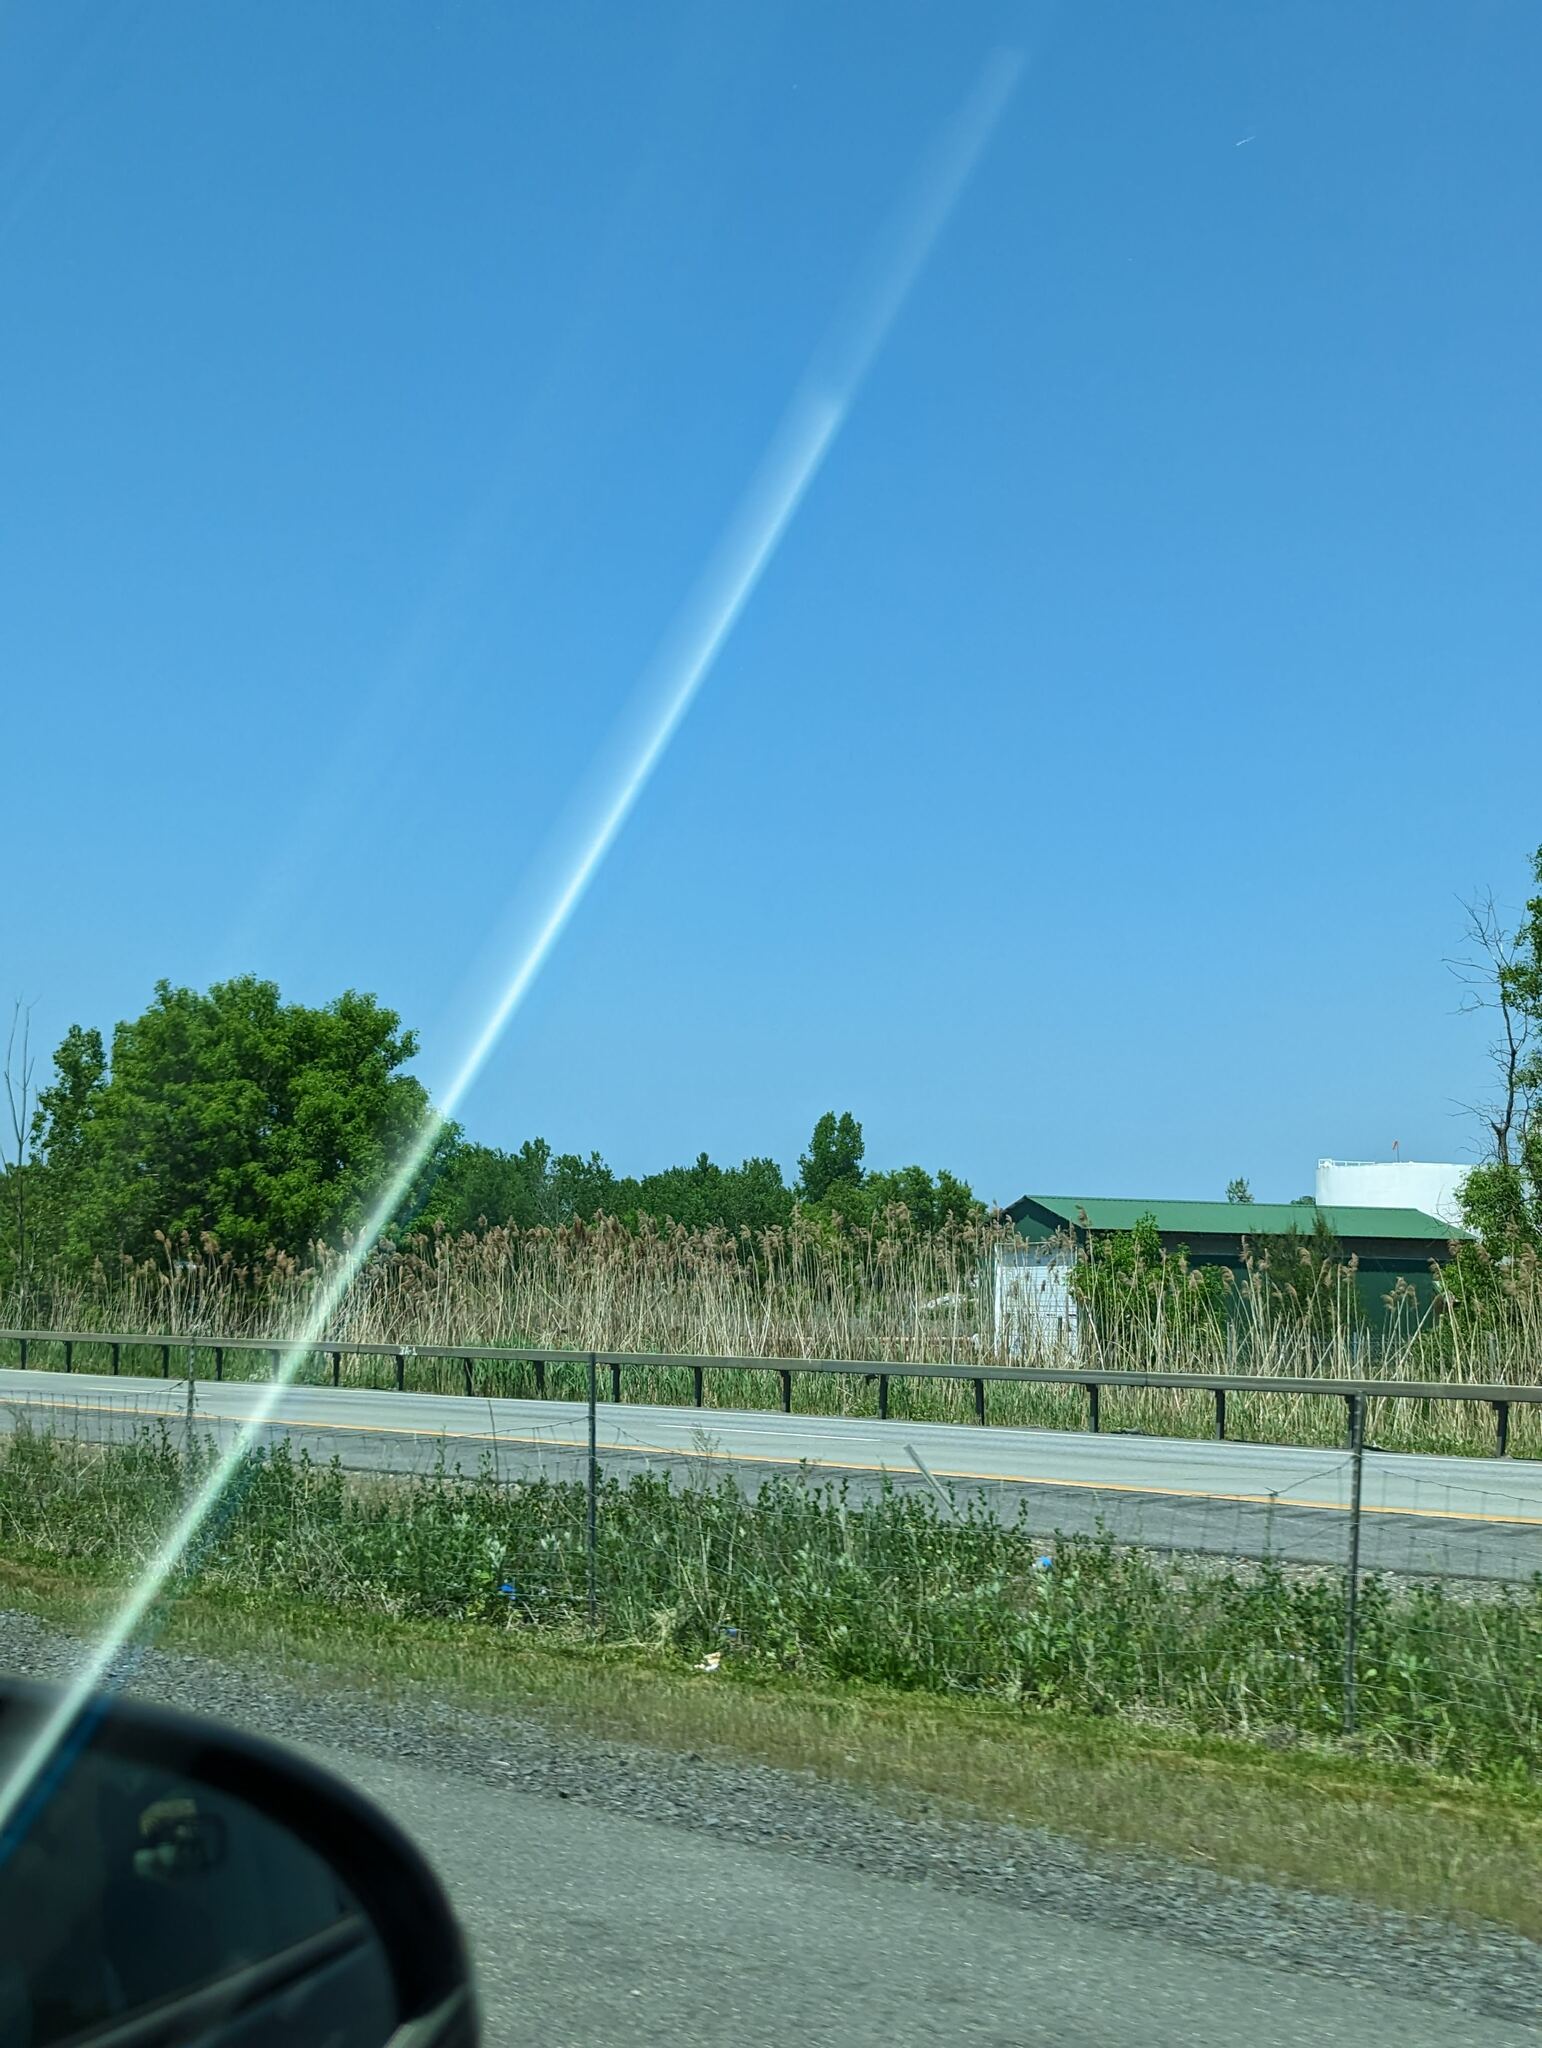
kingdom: Plantae
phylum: Tracheophyta
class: Liliopsida
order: Poales
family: Poaceae
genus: Phragmites
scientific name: Phragmites australis
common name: Common reed
